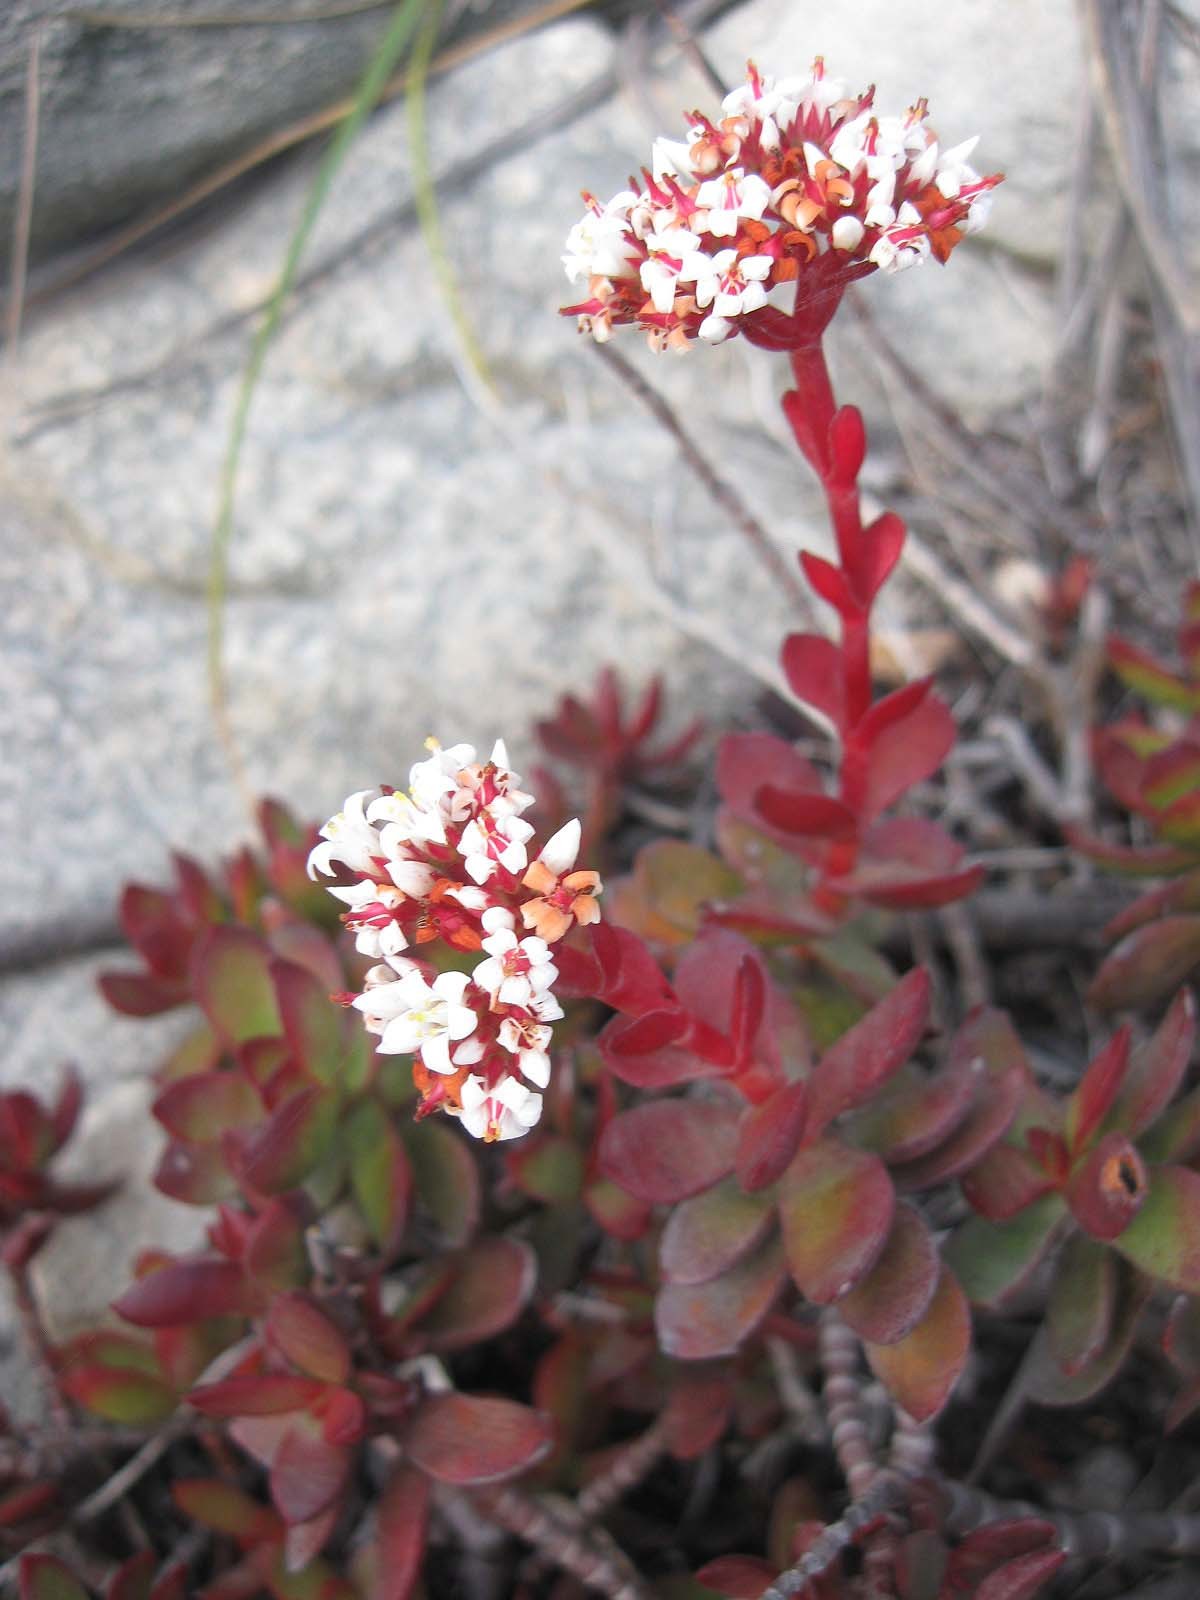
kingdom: Plantae
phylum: Tracheophyta
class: Magnoliopsida
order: Saxifragales
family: Crassulaceae
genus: Crassula
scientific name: Crassula rubricaulis
